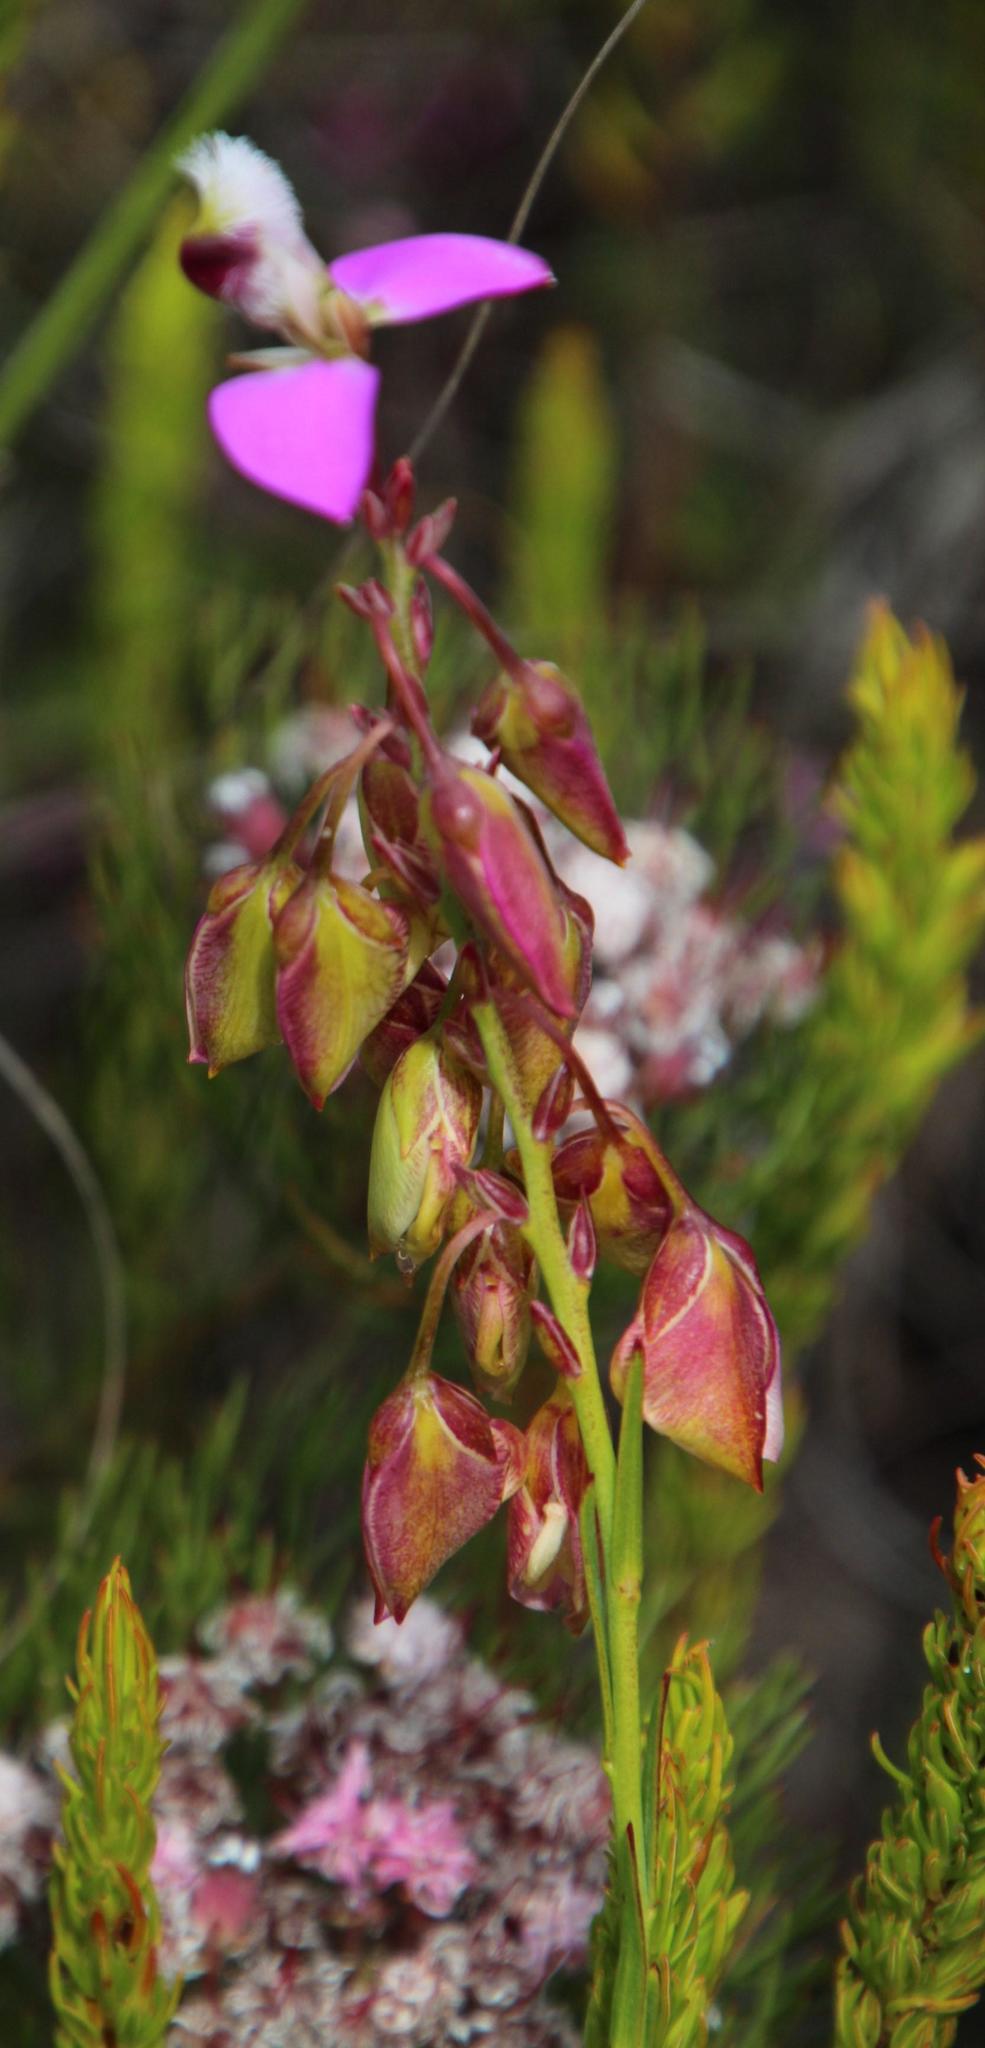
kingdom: Plantae
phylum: Tracheophyta
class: Magnoliopsida
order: Fabales
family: Polygalaceae
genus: Polygala
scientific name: Polygala bracteolata
